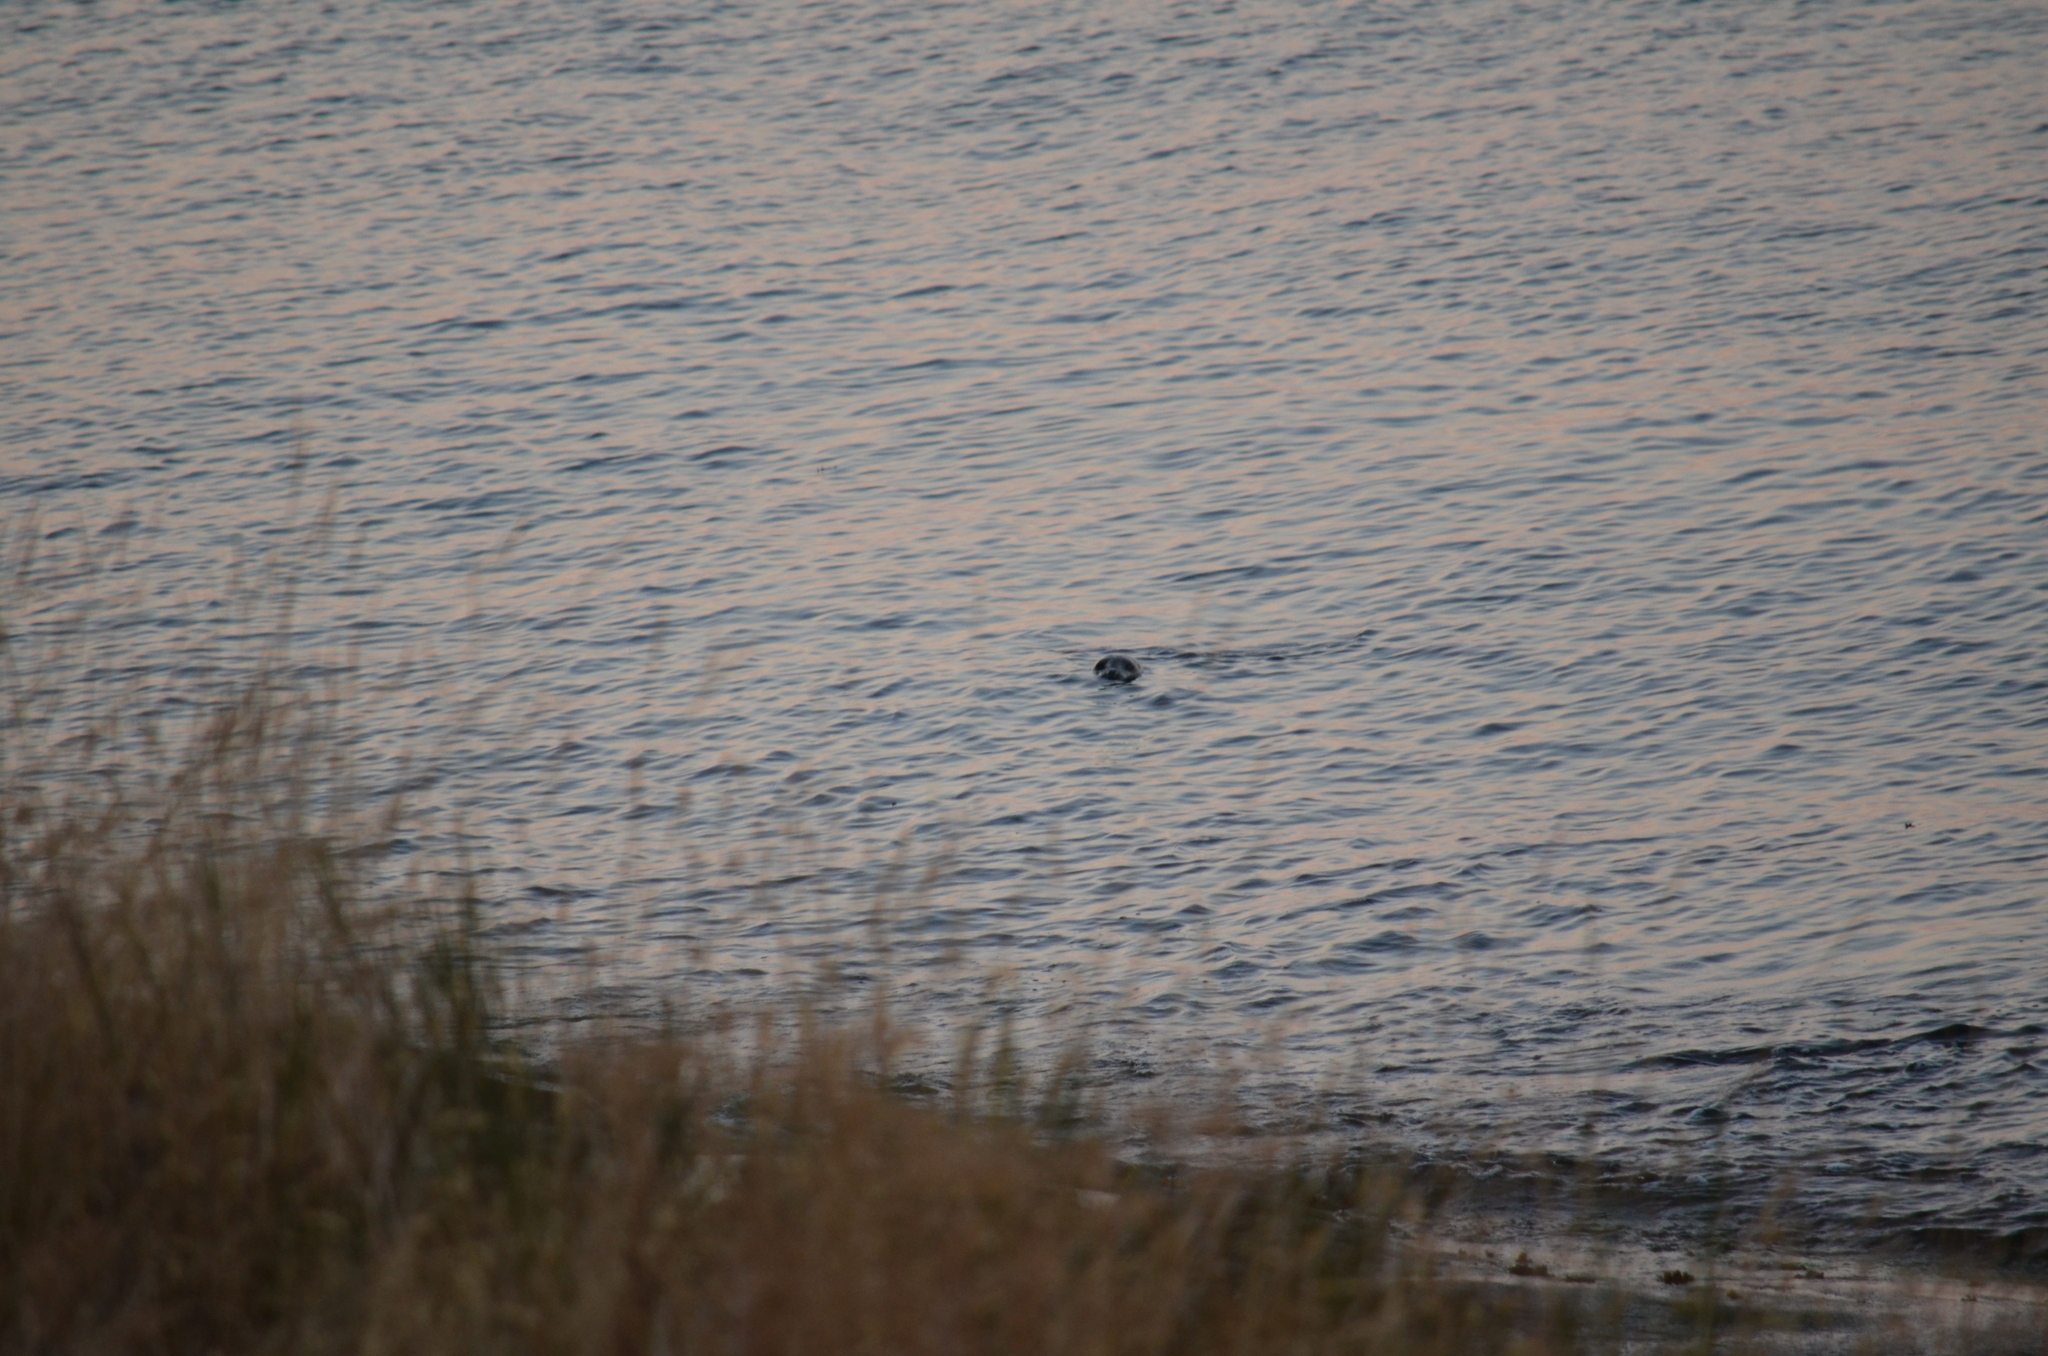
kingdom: Animalia
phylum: Chordata
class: Mammalia
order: Carnivora
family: Phocidae
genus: Phoca
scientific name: Phoca vitulina
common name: Harbor seal
